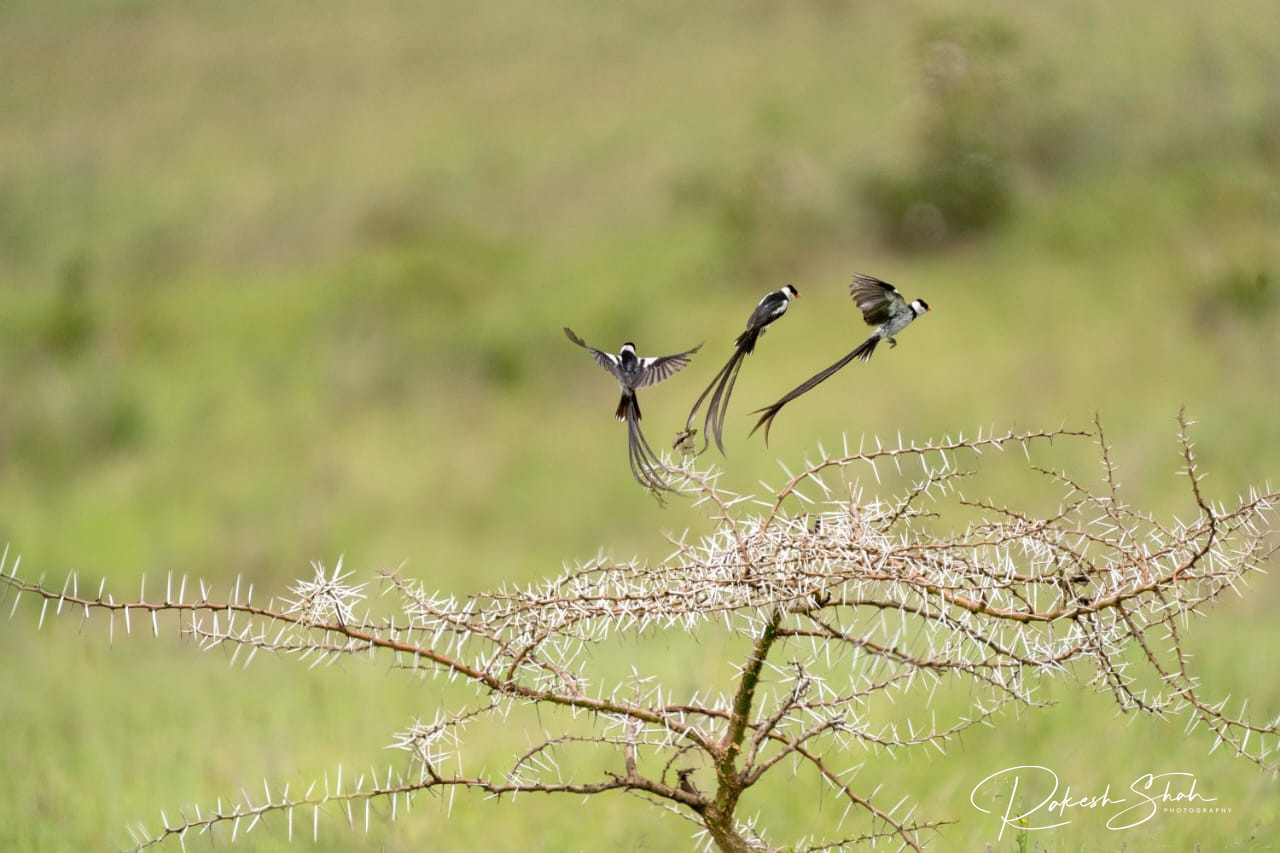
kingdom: Animalia
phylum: Chordata
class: Aves
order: Passeriformes
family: Viduidae
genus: Vidua
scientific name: Vidua macroura
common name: Pin-tailed whydah
